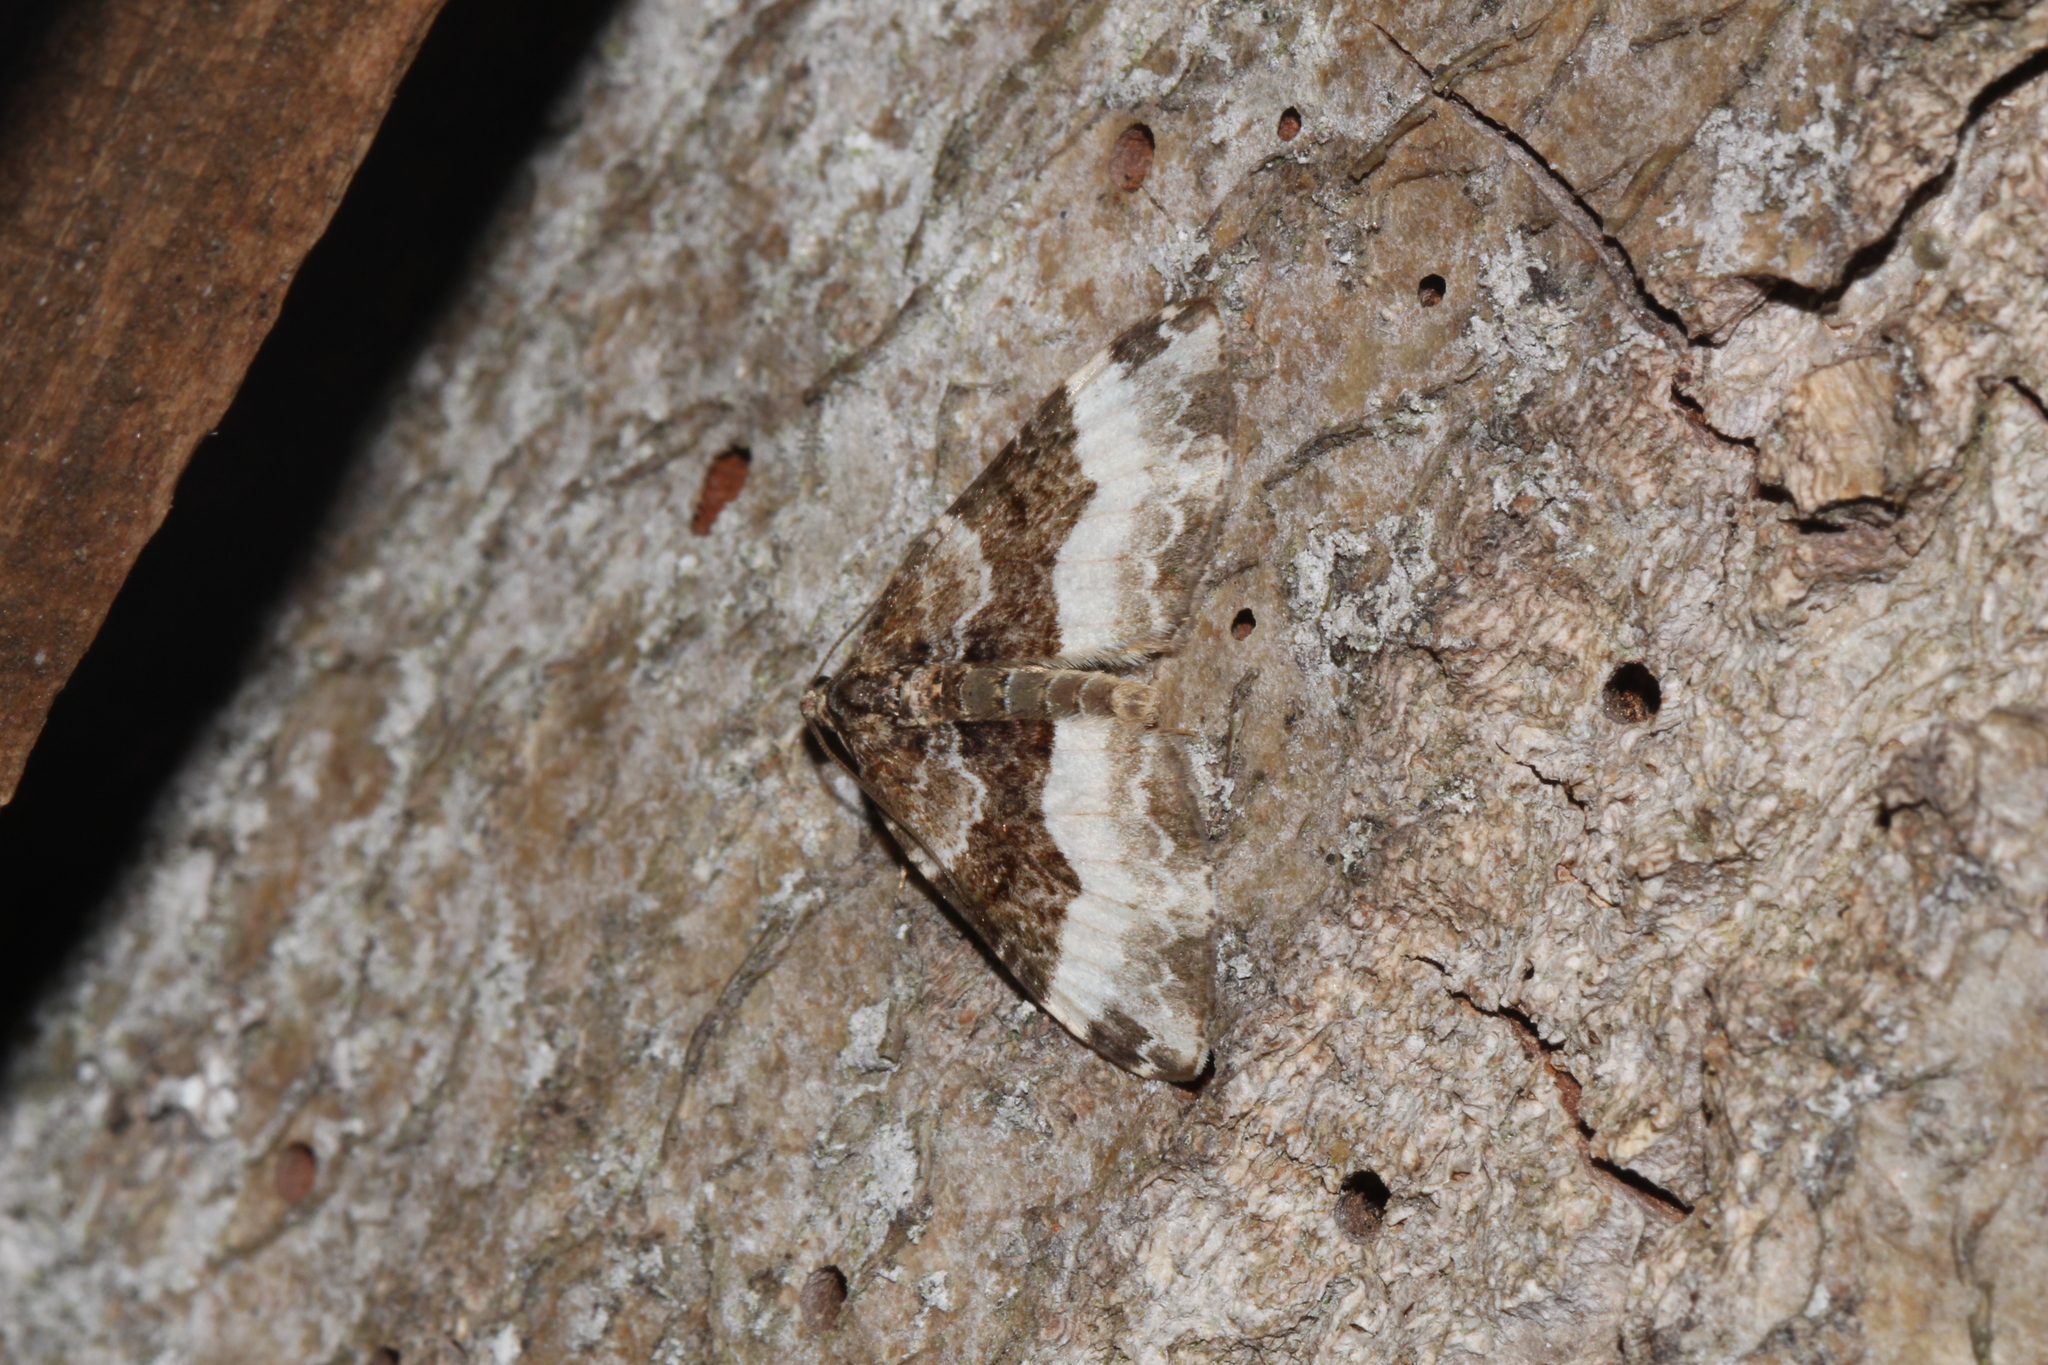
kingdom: Animalia
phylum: Arthropoda
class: Insecta
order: Lepidoptera
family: Geometridae
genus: Euphyia
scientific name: Euphyia unangulata
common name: Sharp-angled carpet
